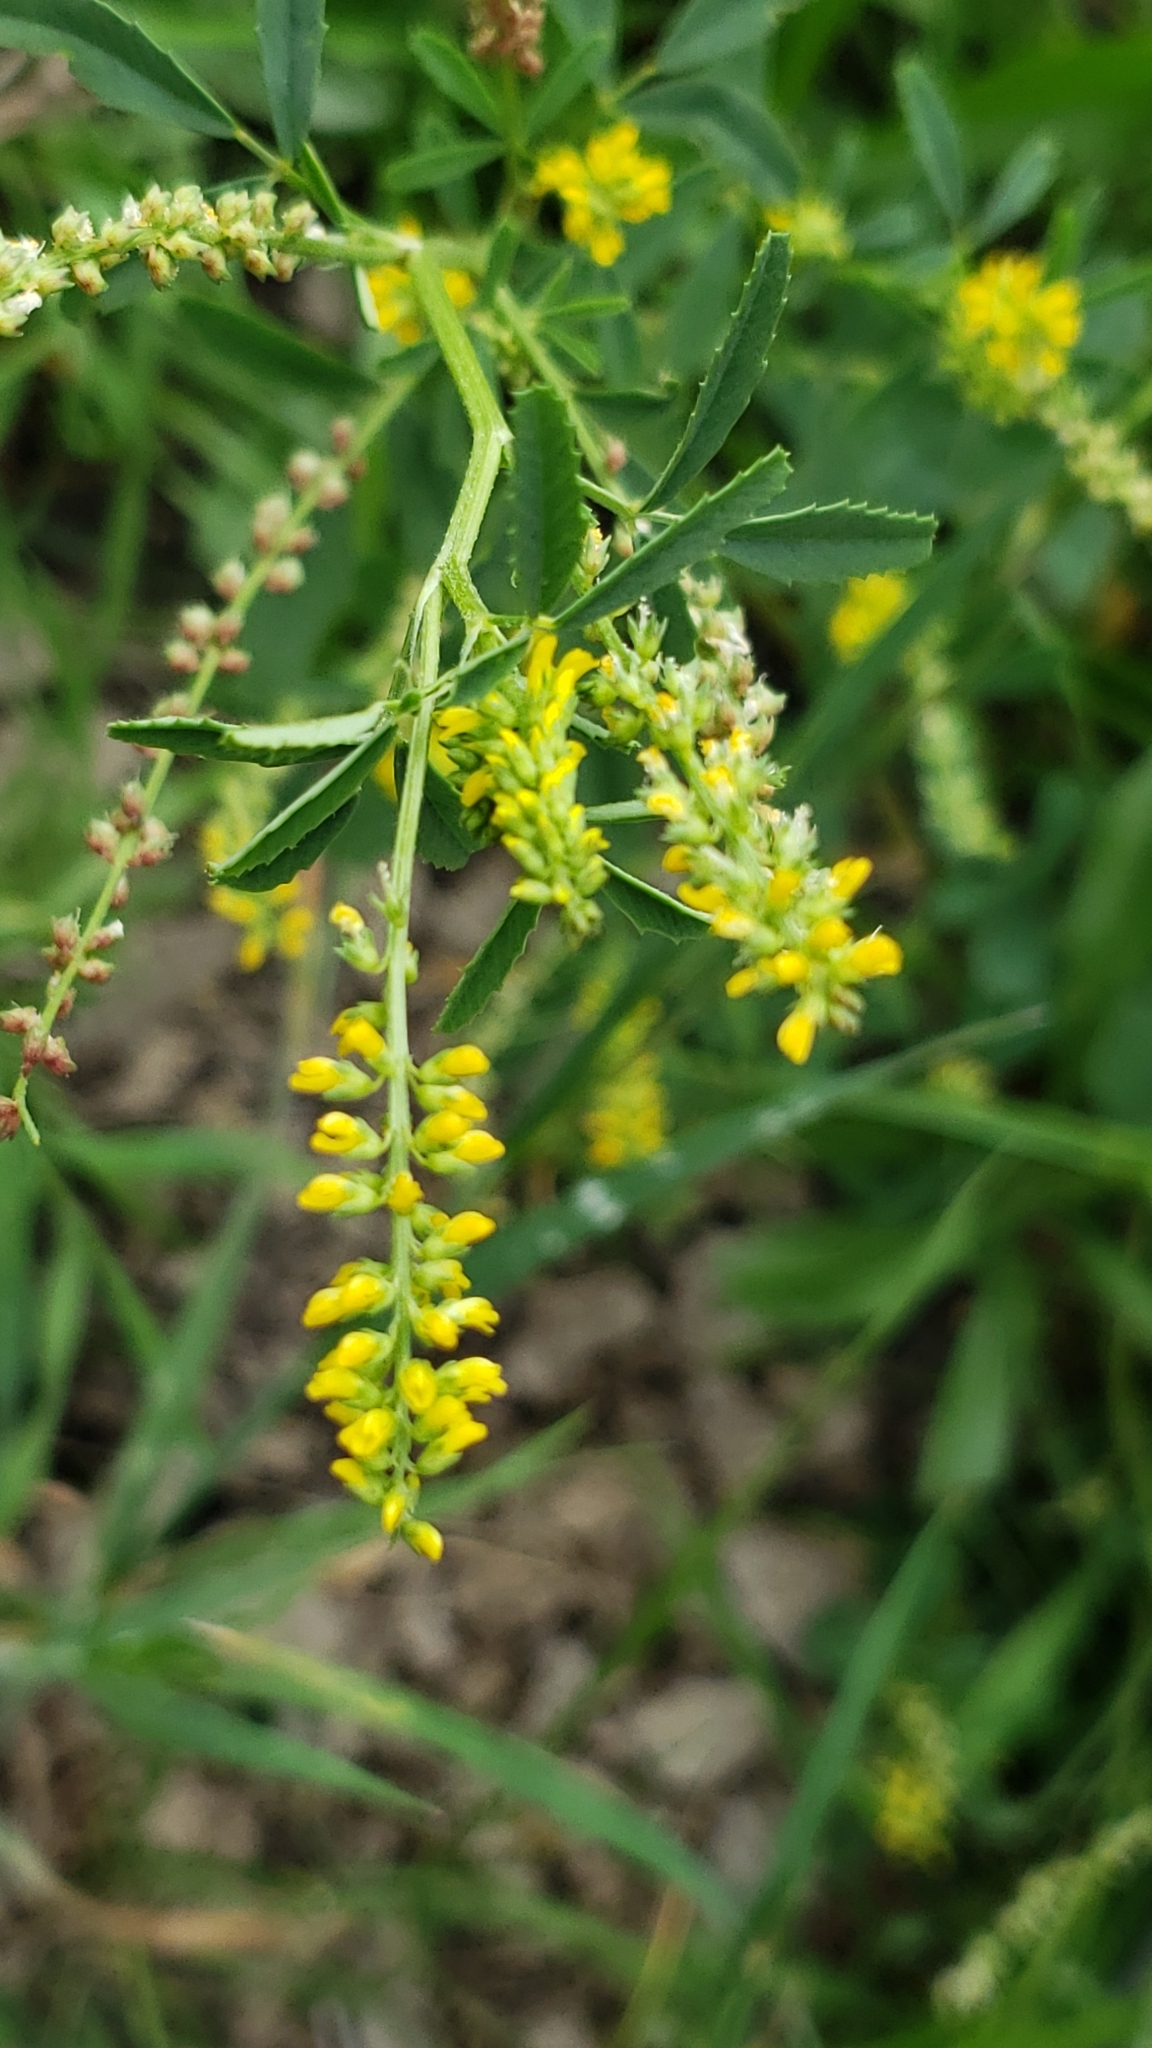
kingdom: Plantae
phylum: Tracheophyta
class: Magnoliopsida
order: Fabales
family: Fabaceae
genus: Melilotus
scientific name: Melilotus indicus
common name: Small melilot
